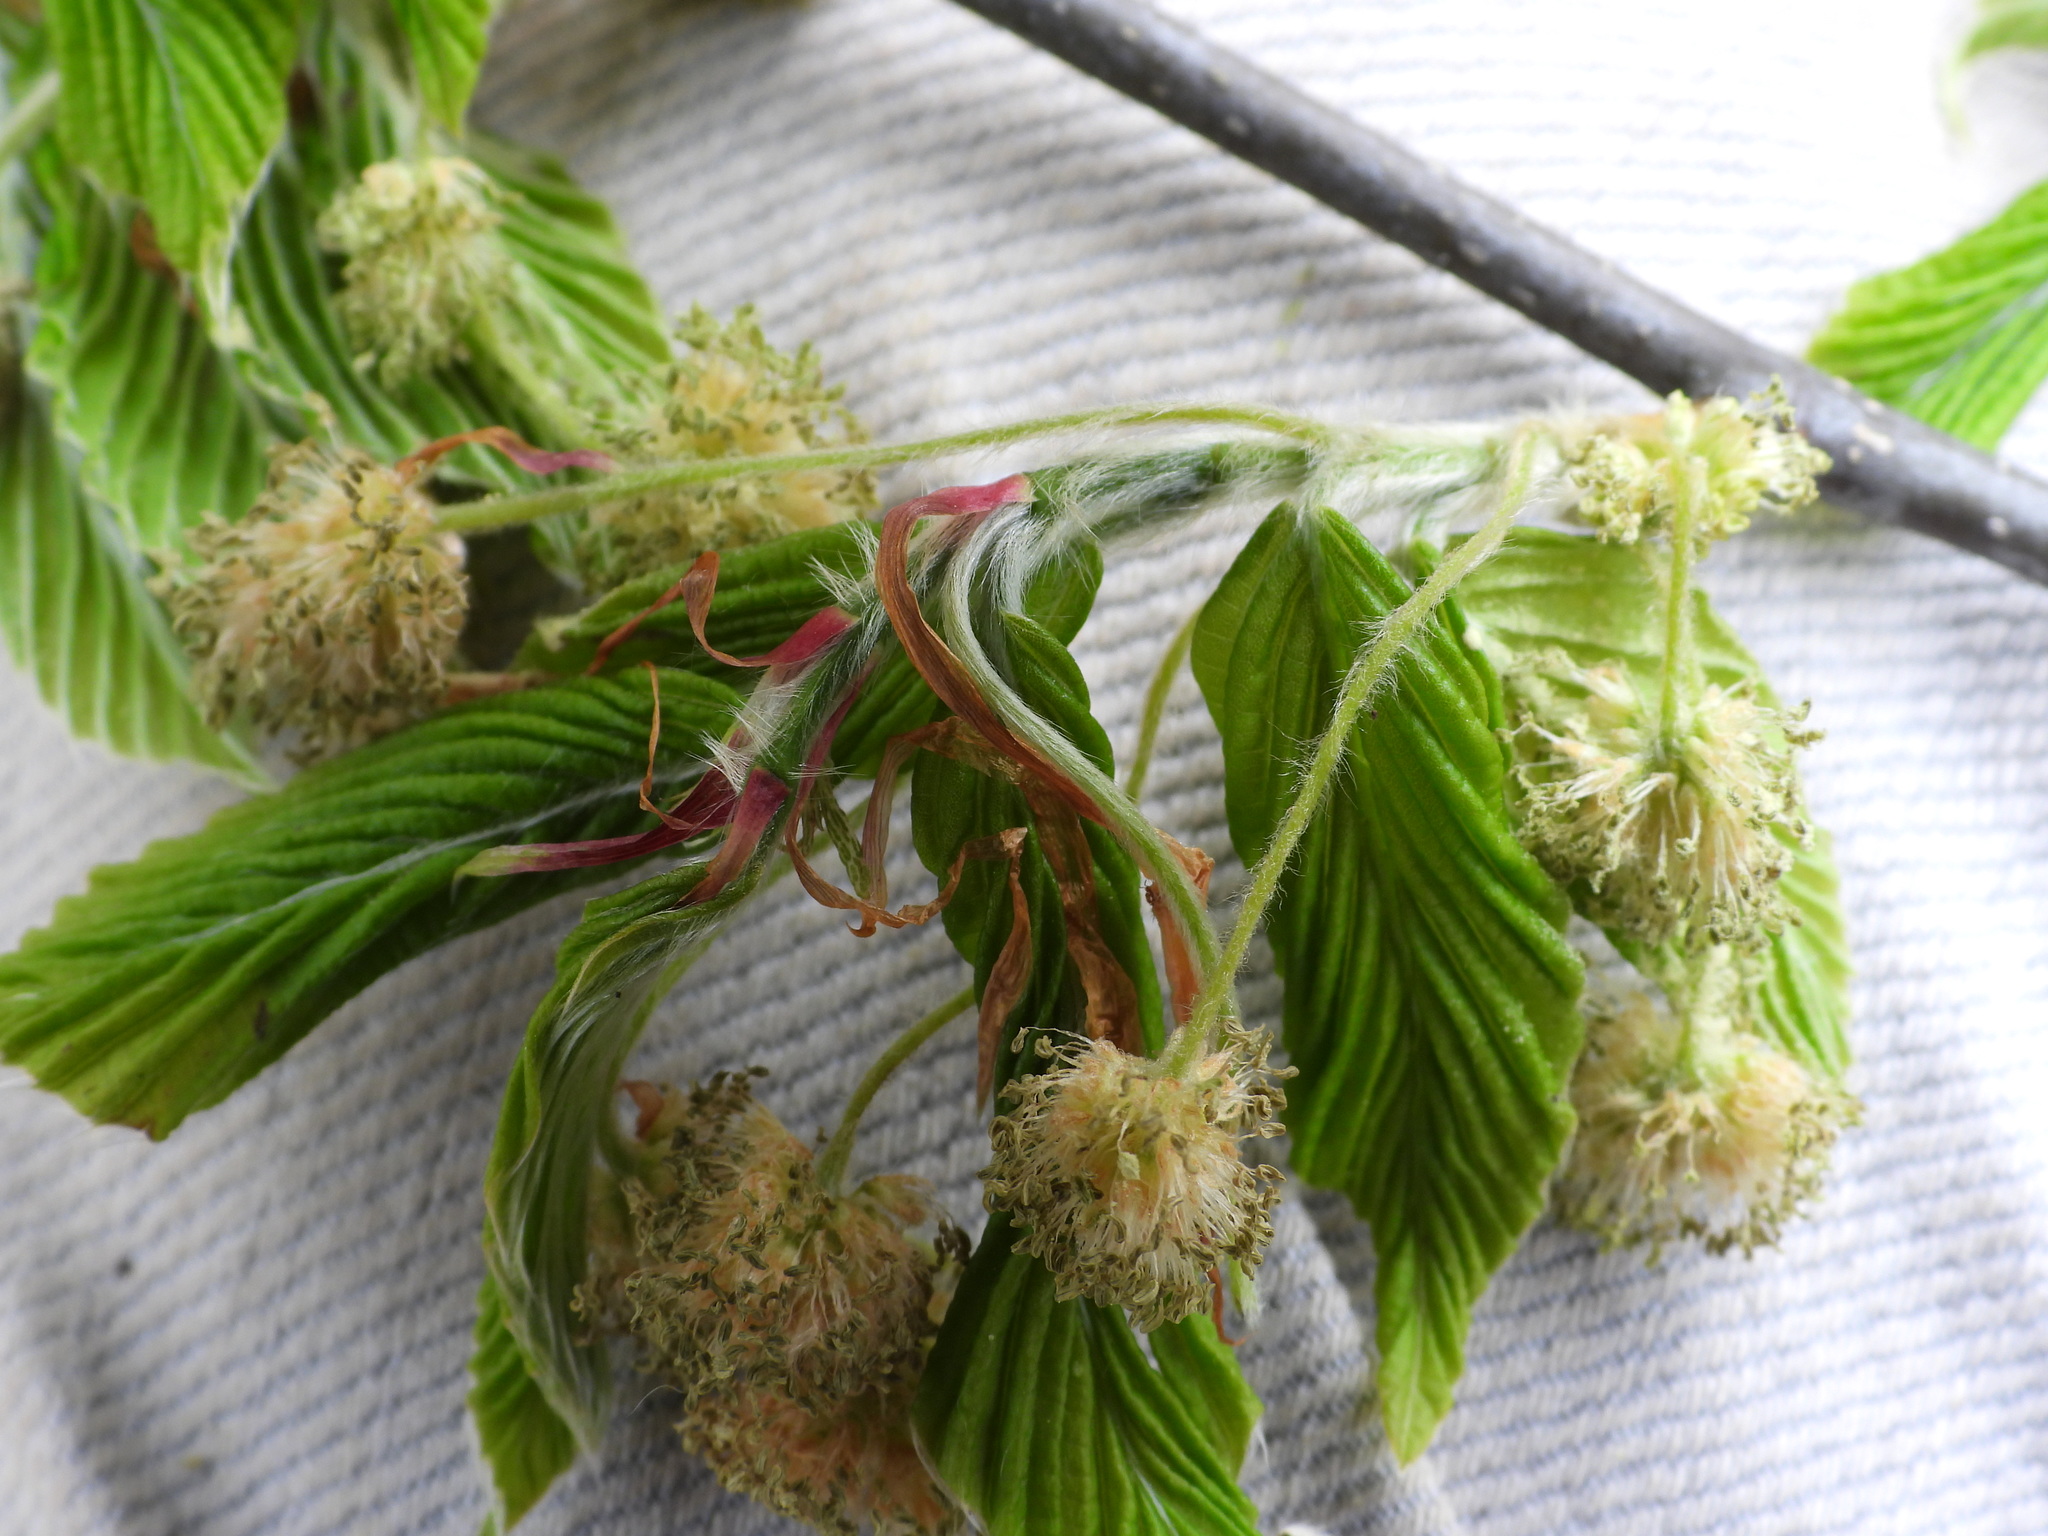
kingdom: Plantae
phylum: Tracheophyta
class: Magnoliopsida
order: Fagales
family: Fagaceae
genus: Fagus
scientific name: Fagus grandifolia
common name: American beech
